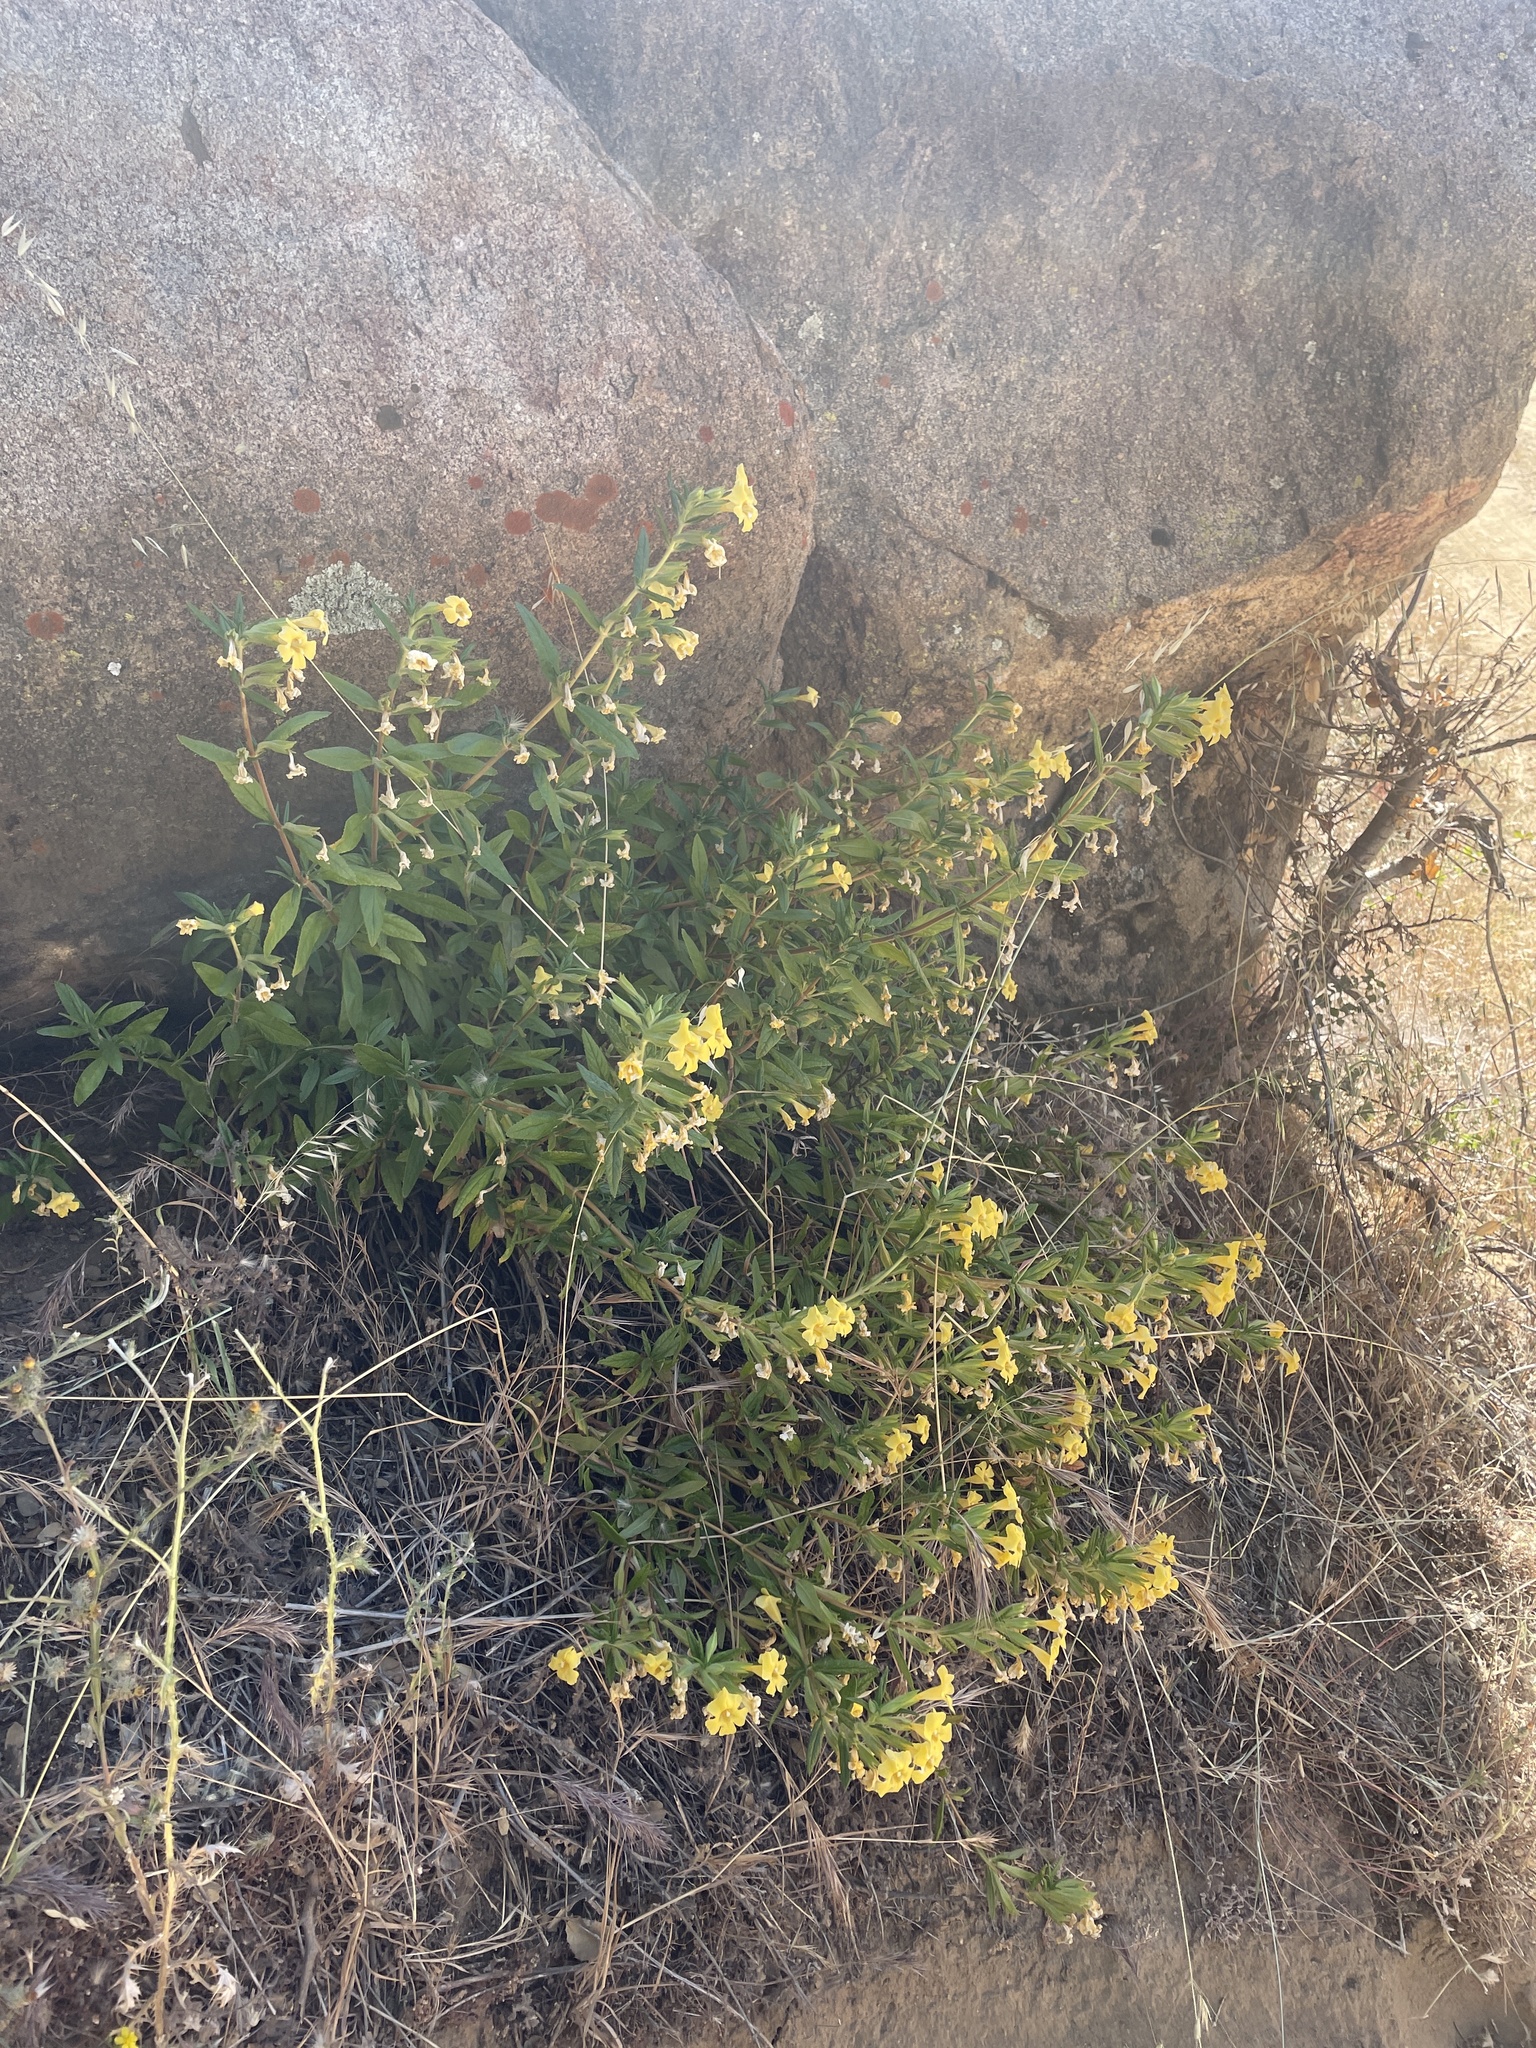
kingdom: Plantae
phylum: Tracheophyta
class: Magnoliopsida
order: Lamiales
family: Phrymaceae
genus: Diplacus
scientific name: Diplacus calycinus
